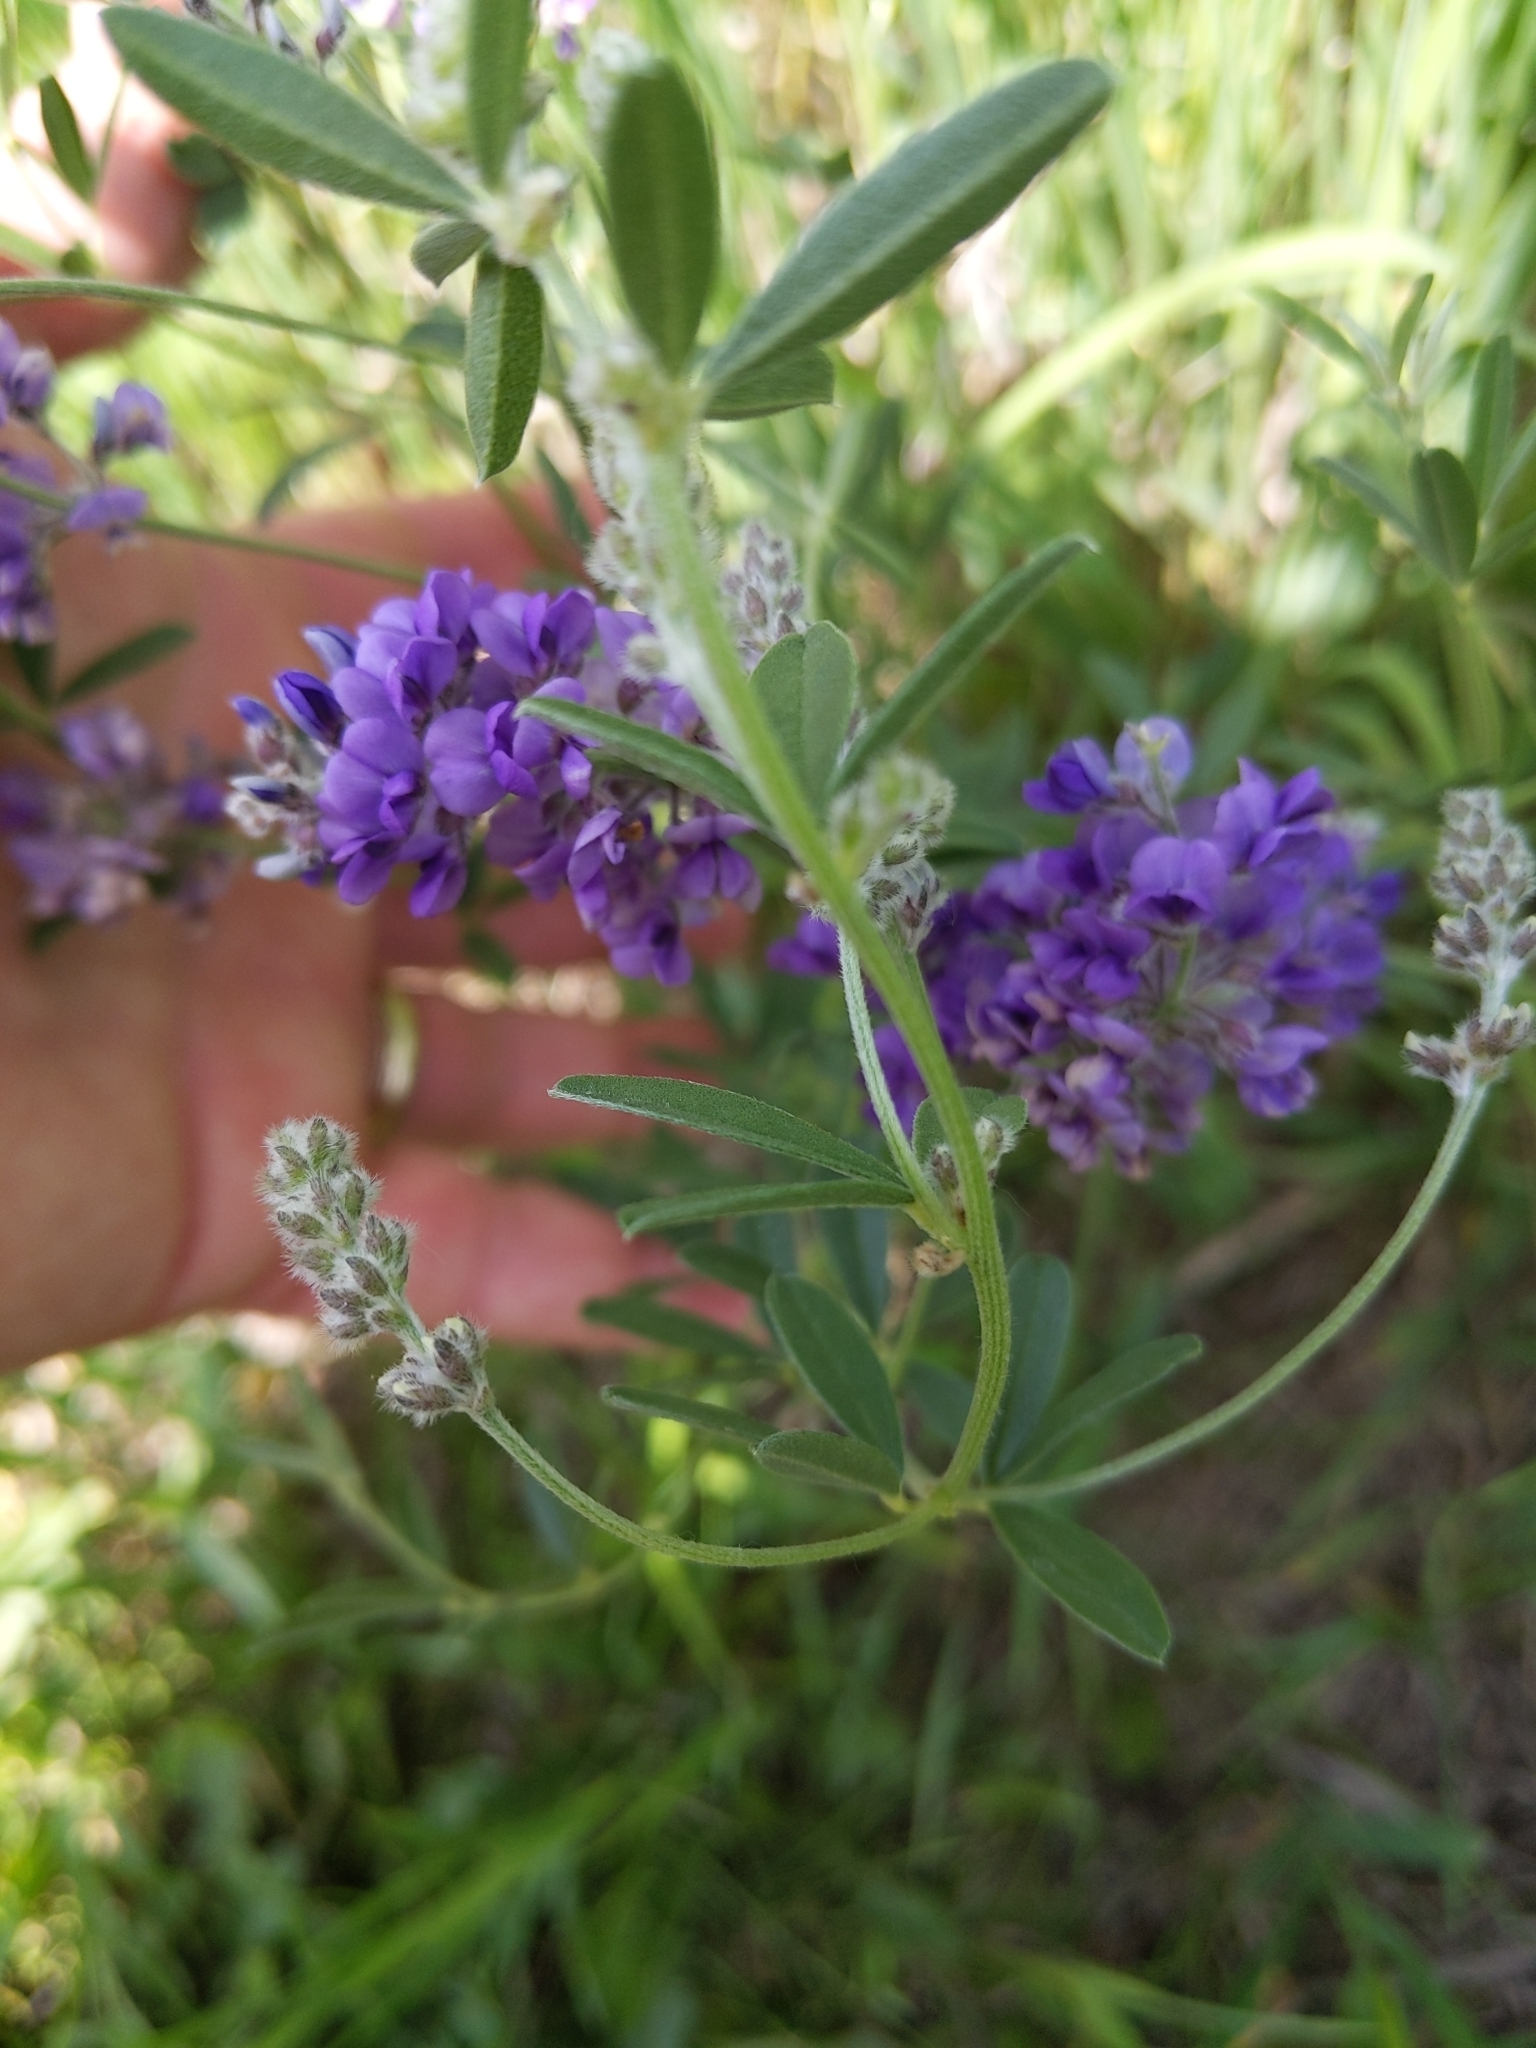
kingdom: Plantae
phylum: Tracheophyta
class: Magnoliopsida
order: Fabales
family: Fabaceae
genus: Pediomelum
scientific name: Pediomelum tenuiflorum
